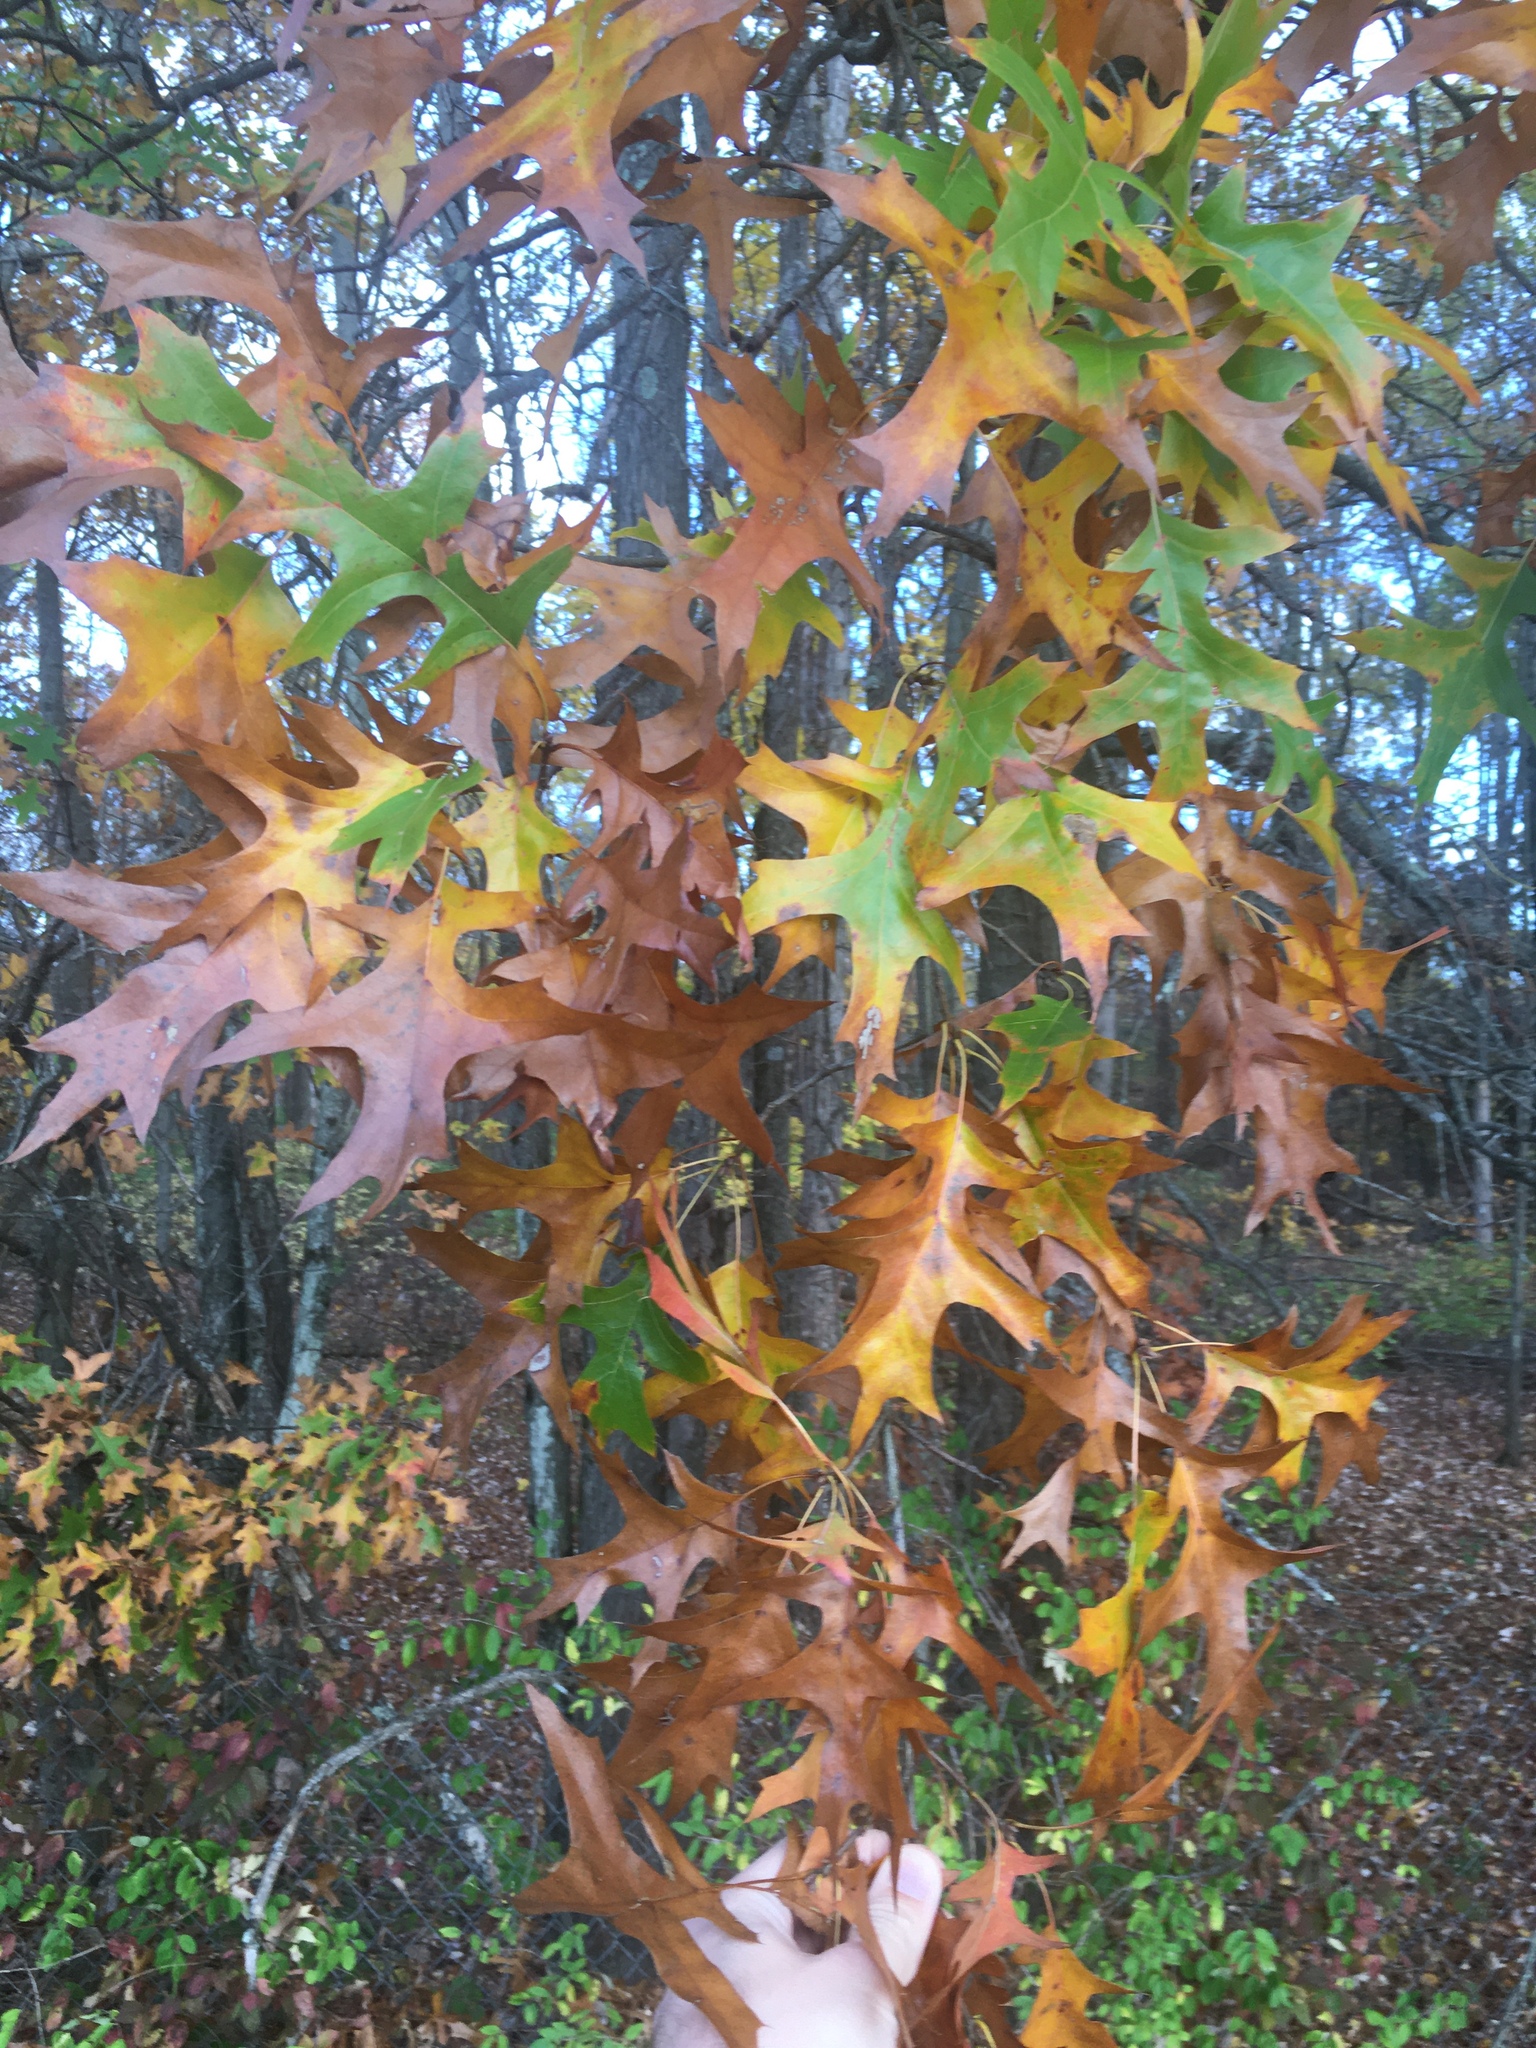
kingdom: Plantae
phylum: Tracheophyta
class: Magnoliopsida
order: Fagales
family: Fagaceae
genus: Quercus
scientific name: Quercus palustris
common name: Pin oak
